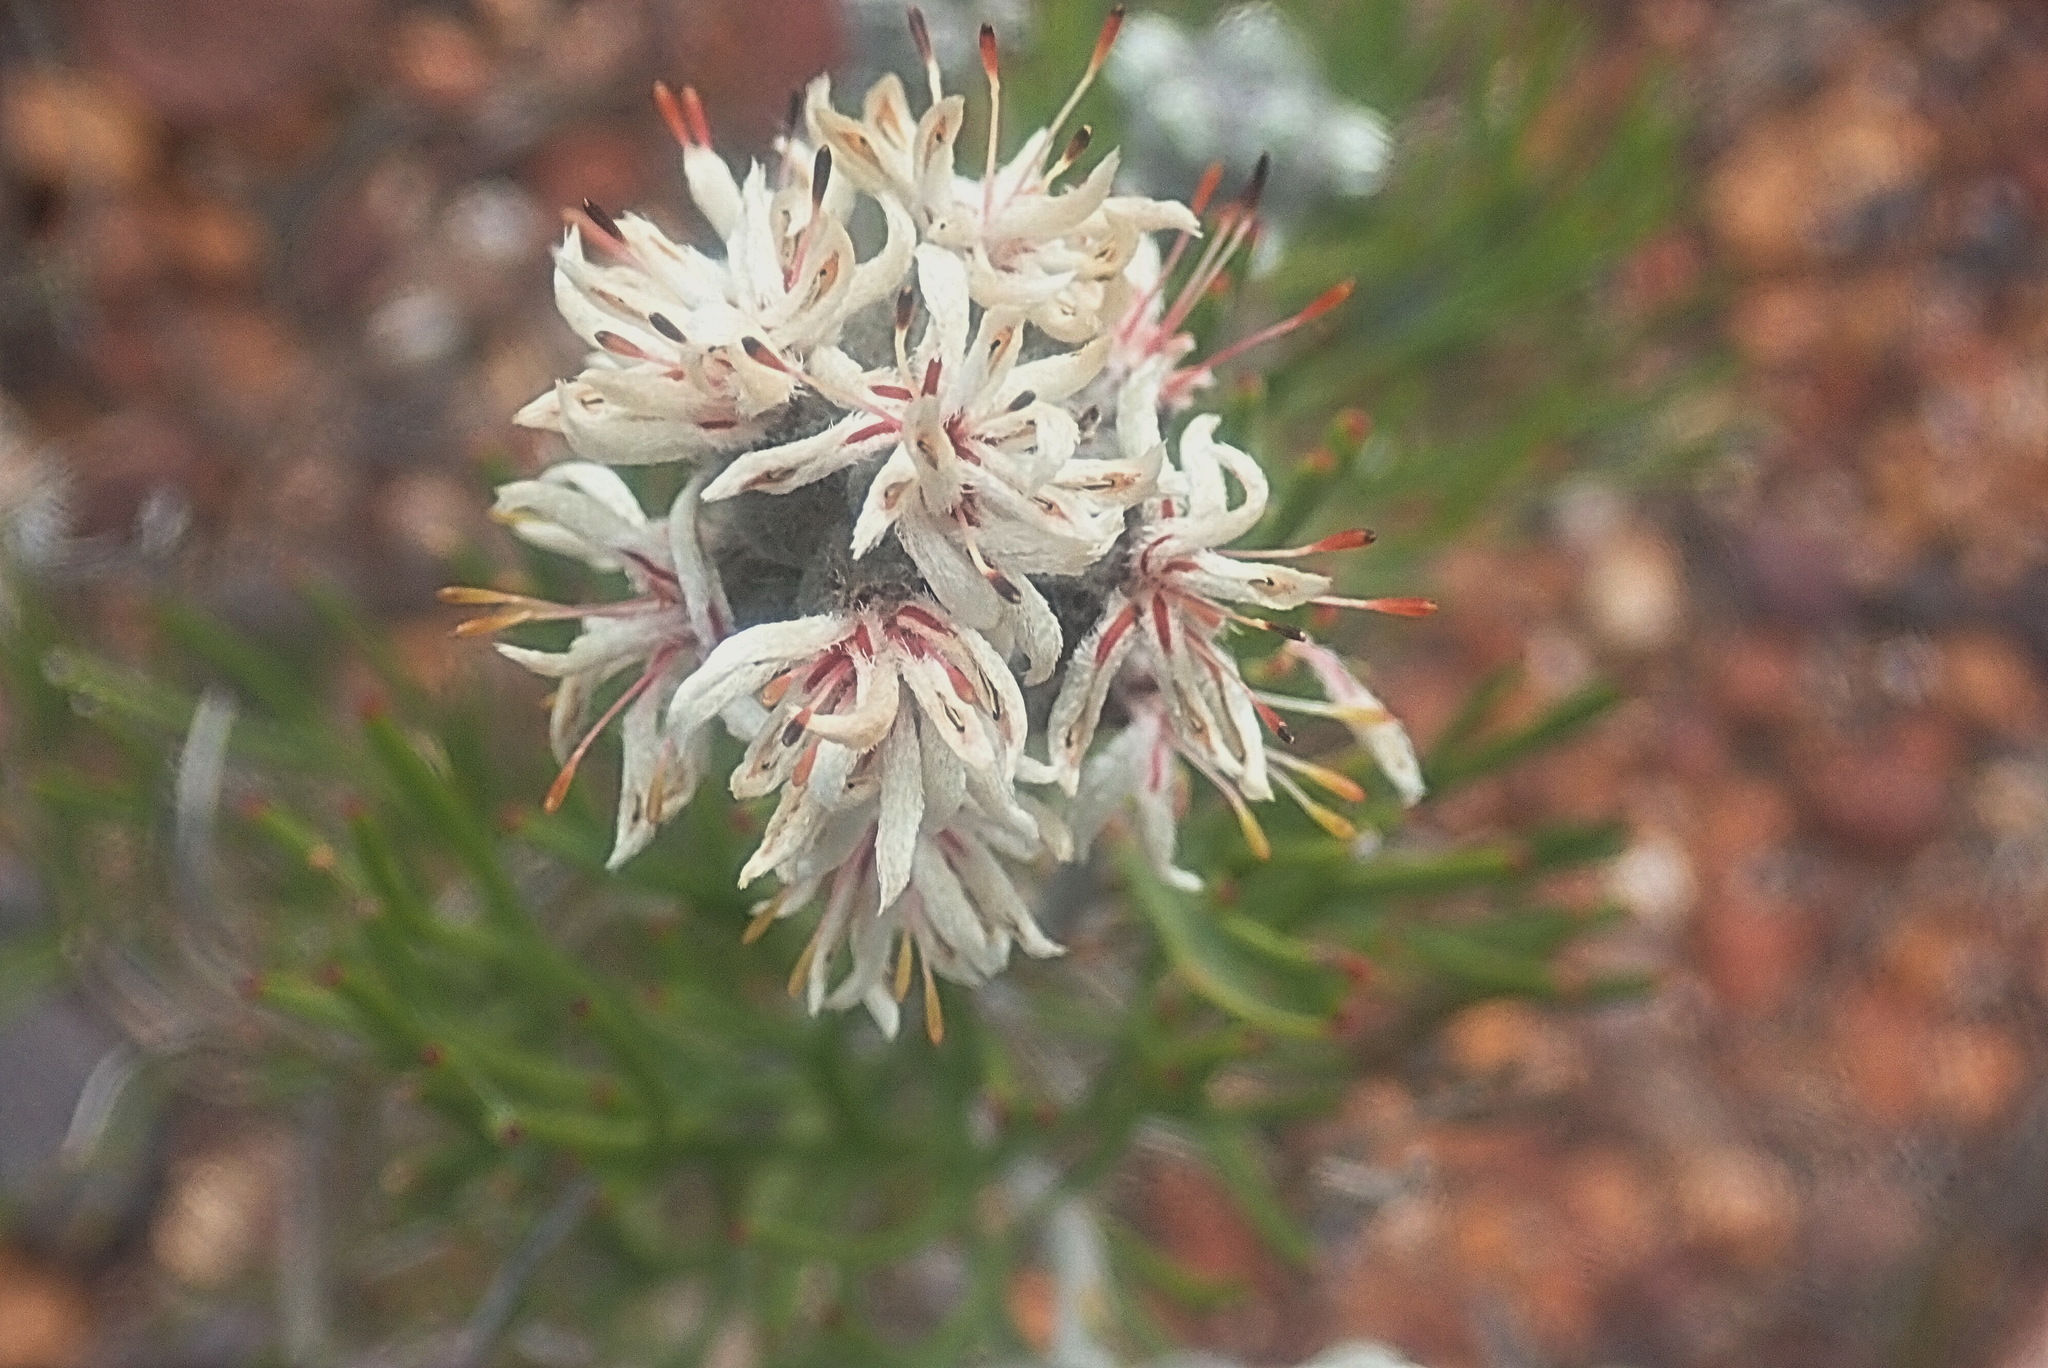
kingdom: Plantae
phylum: Tracheophyta
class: Magnoliopsida
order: Proteales
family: Proteaceae
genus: Paranomus
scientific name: Paranomus dregei
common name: Scented sceptre
